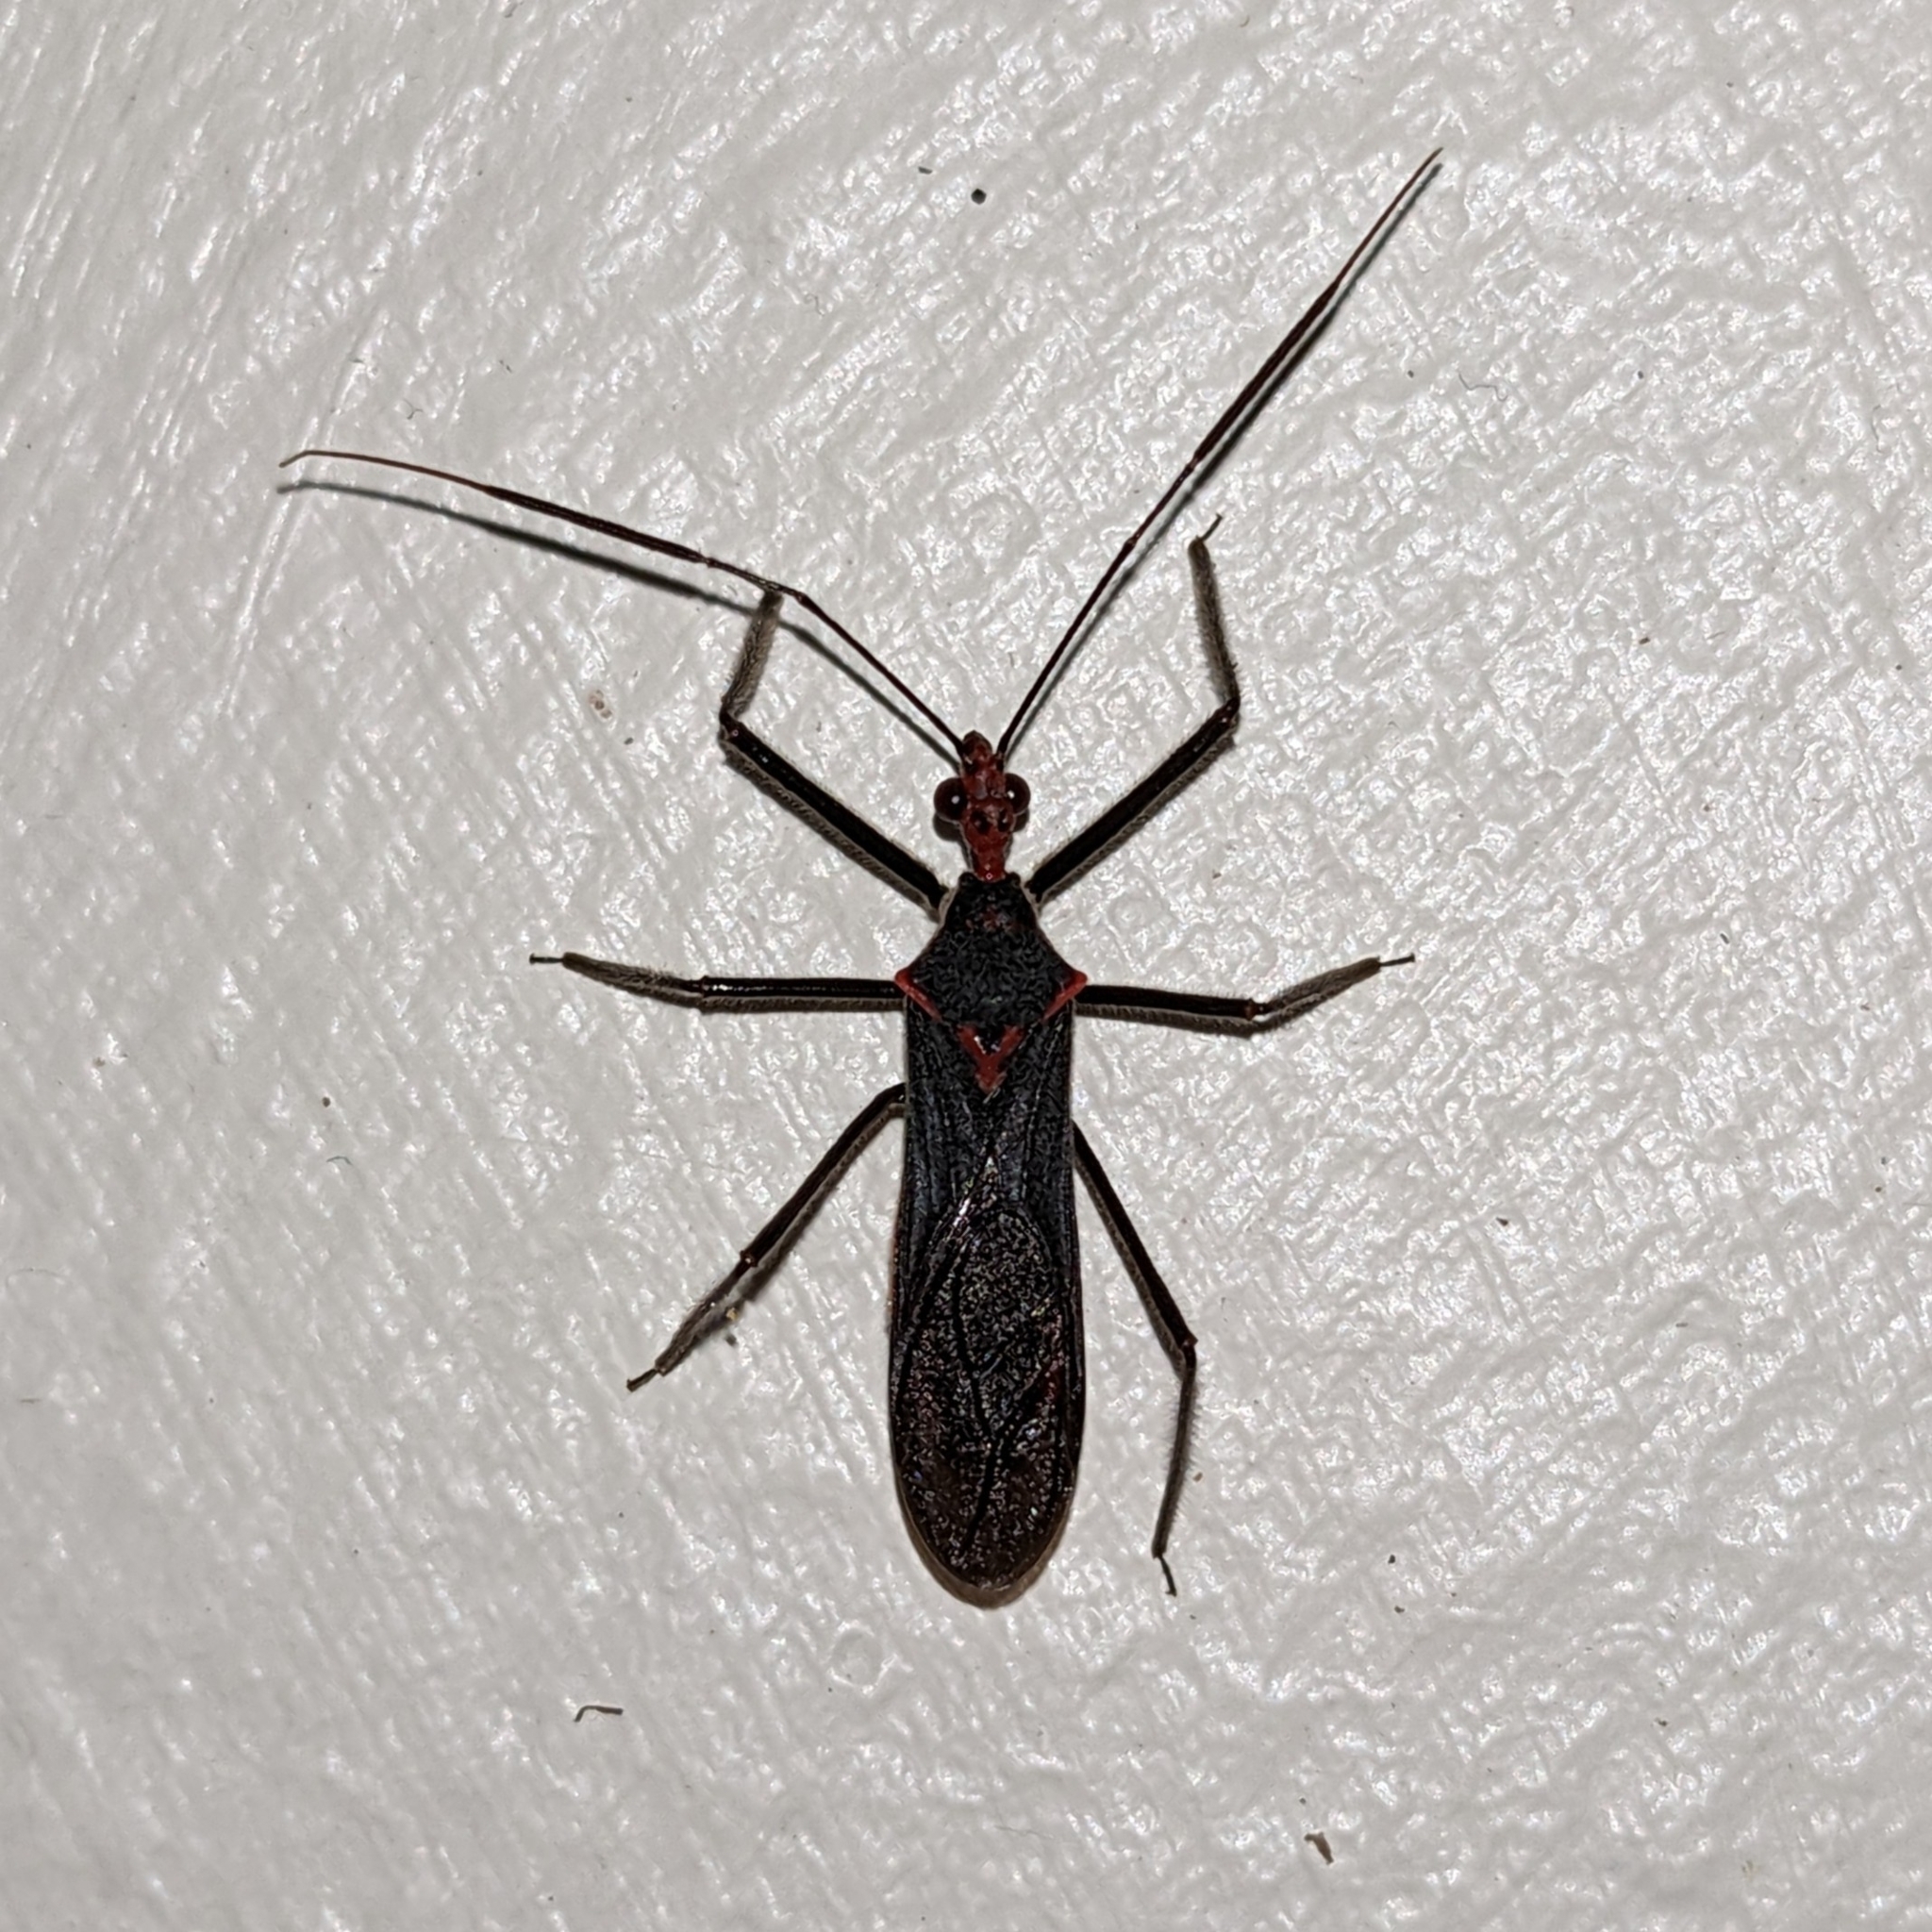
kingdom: Animalia
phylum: Arthropoda
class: Insecta
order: Hemiptera
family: Reduviidae
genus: Castolus
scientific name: Castolus rufomarginatus
